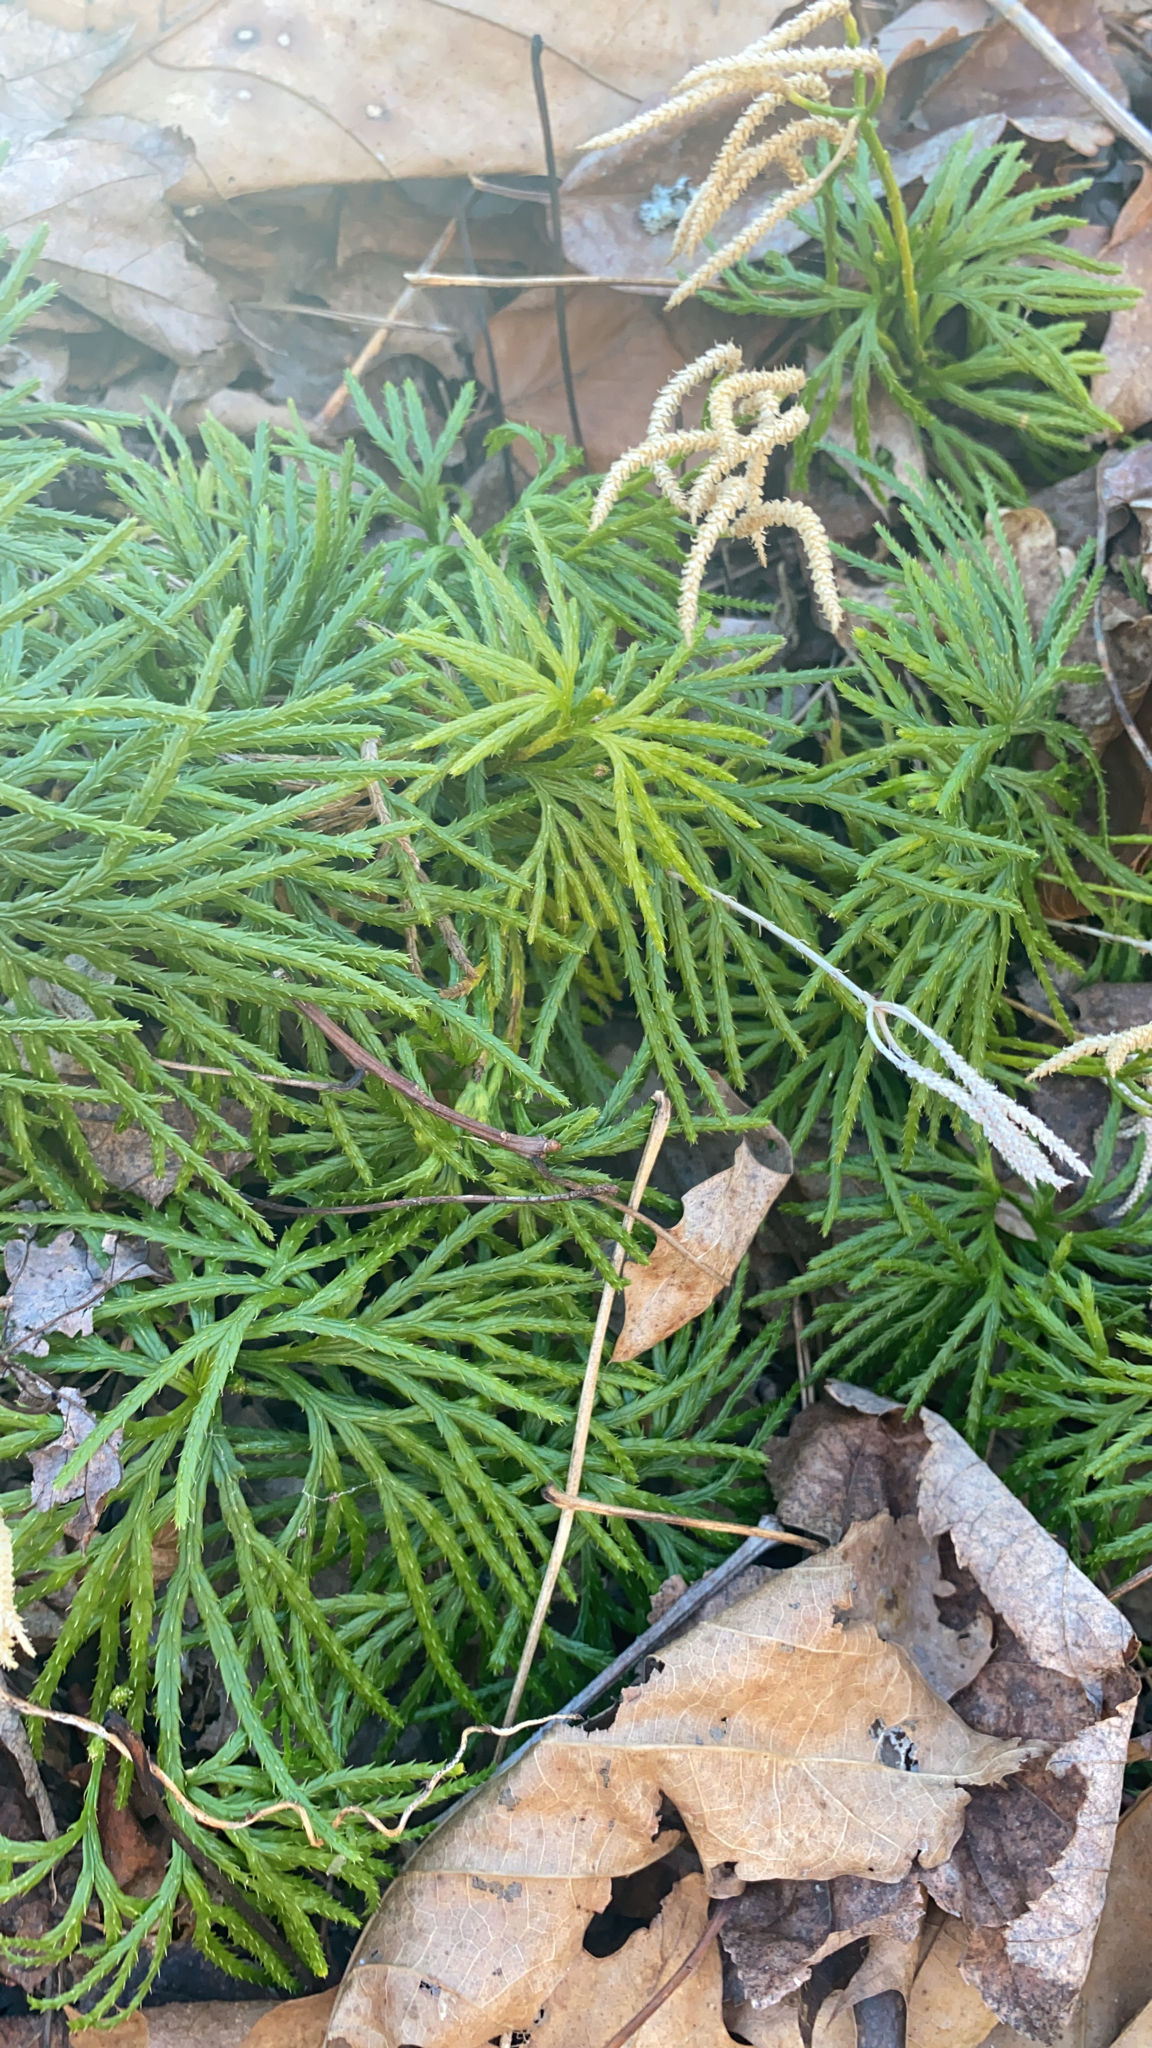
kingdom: Plantae
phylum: Tracheophyta
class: Lycopodiopsida
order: Lycopodiales
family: Lycopodiaceae
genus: Diphasiastrum
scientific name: Diphasiastrum digitatum
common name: Southern running-pine
